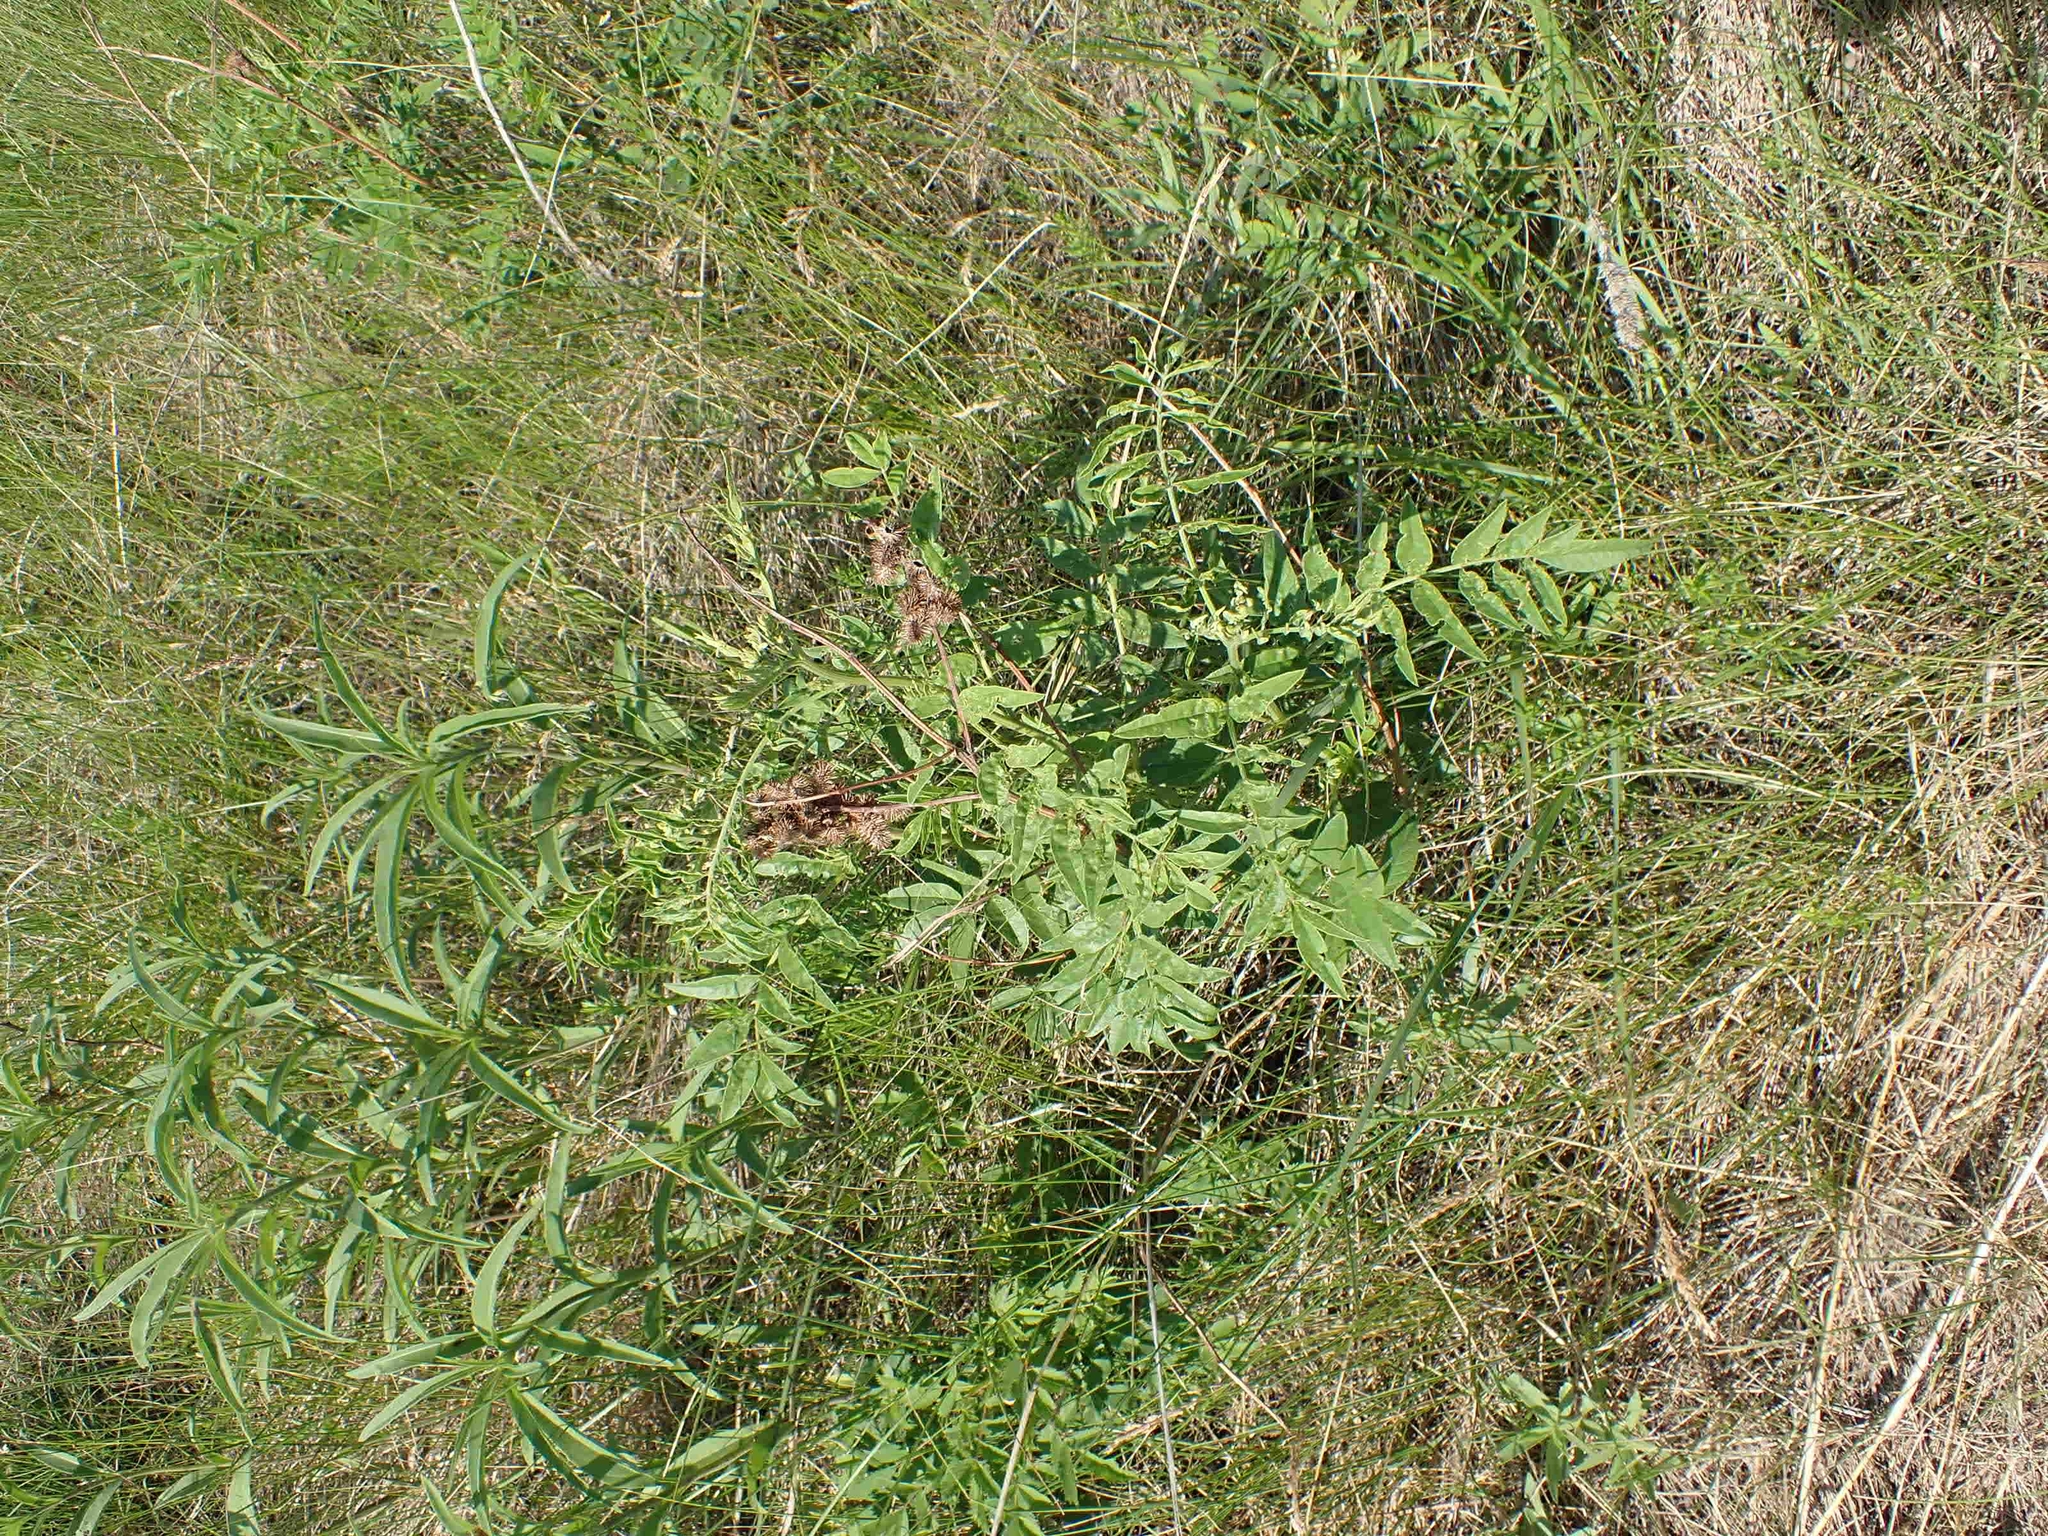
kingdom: Plantae
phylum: Tracheophyta
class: Magnoliopsida
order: Fabales
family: Fabaceae
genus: Glycyrrhiza
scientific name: Glycyrrhiza lepidota
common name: American liquorice
